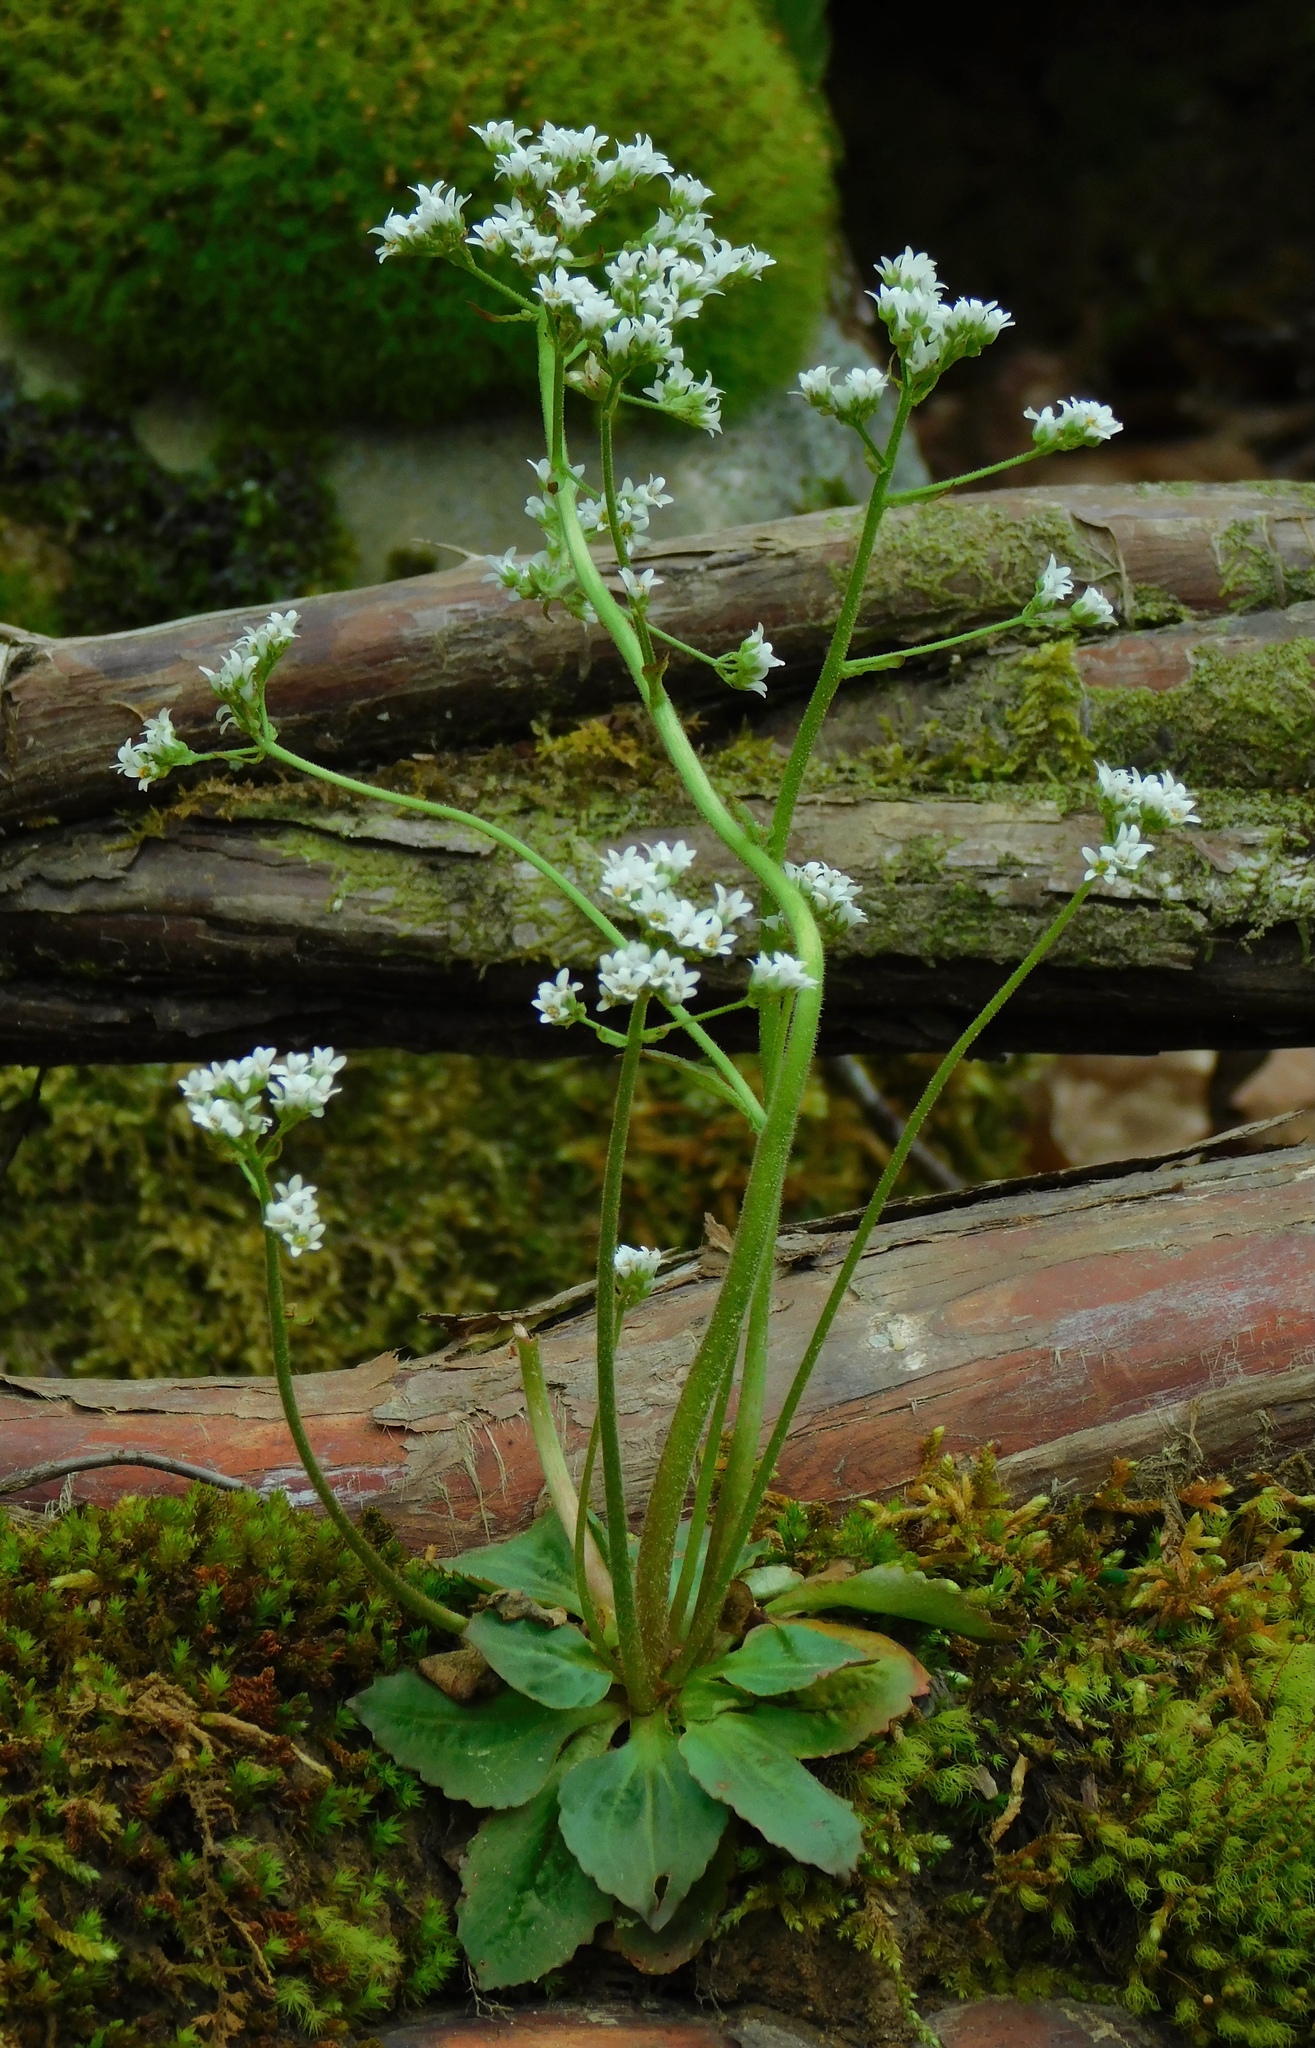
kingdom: Plantae
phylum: Tracheophyta
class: Magnoliopsida
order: Saxifragales
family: Saxifragaceae
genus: Micranthes
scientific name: Micranthes virginiensis
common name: Early saxifrage
